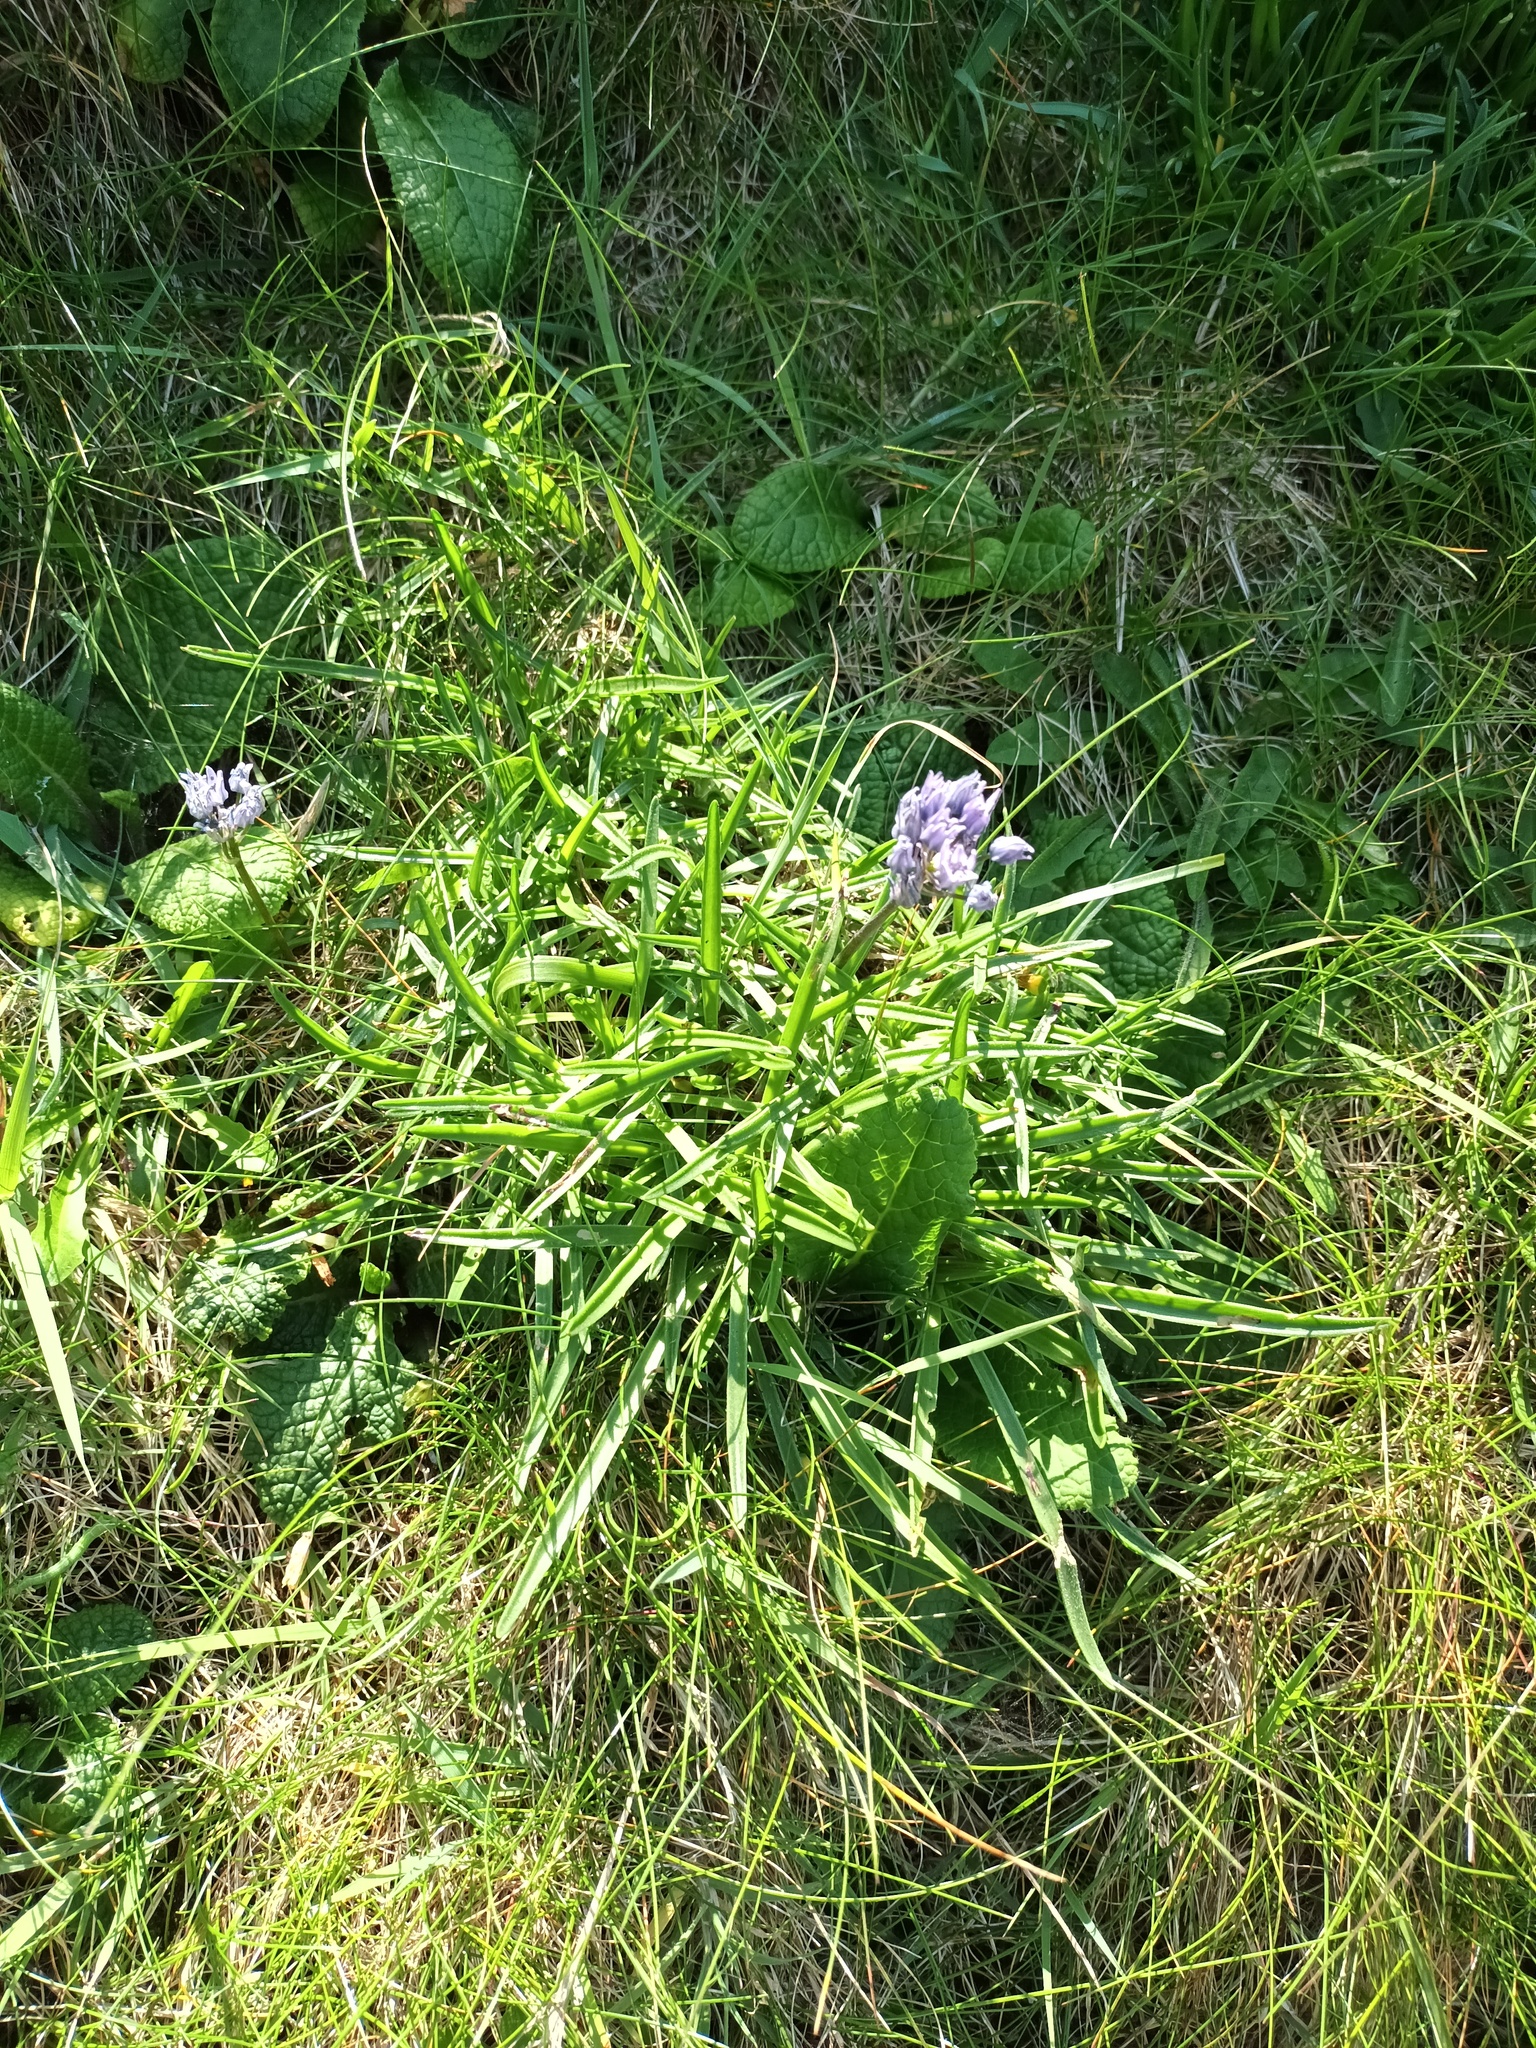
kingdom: Plantae
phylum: Tracheophyta
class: Liliopsida
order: Asparagales
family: Asparagaceae
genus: Scilla
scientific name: Scilla verna
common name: Spring squill
